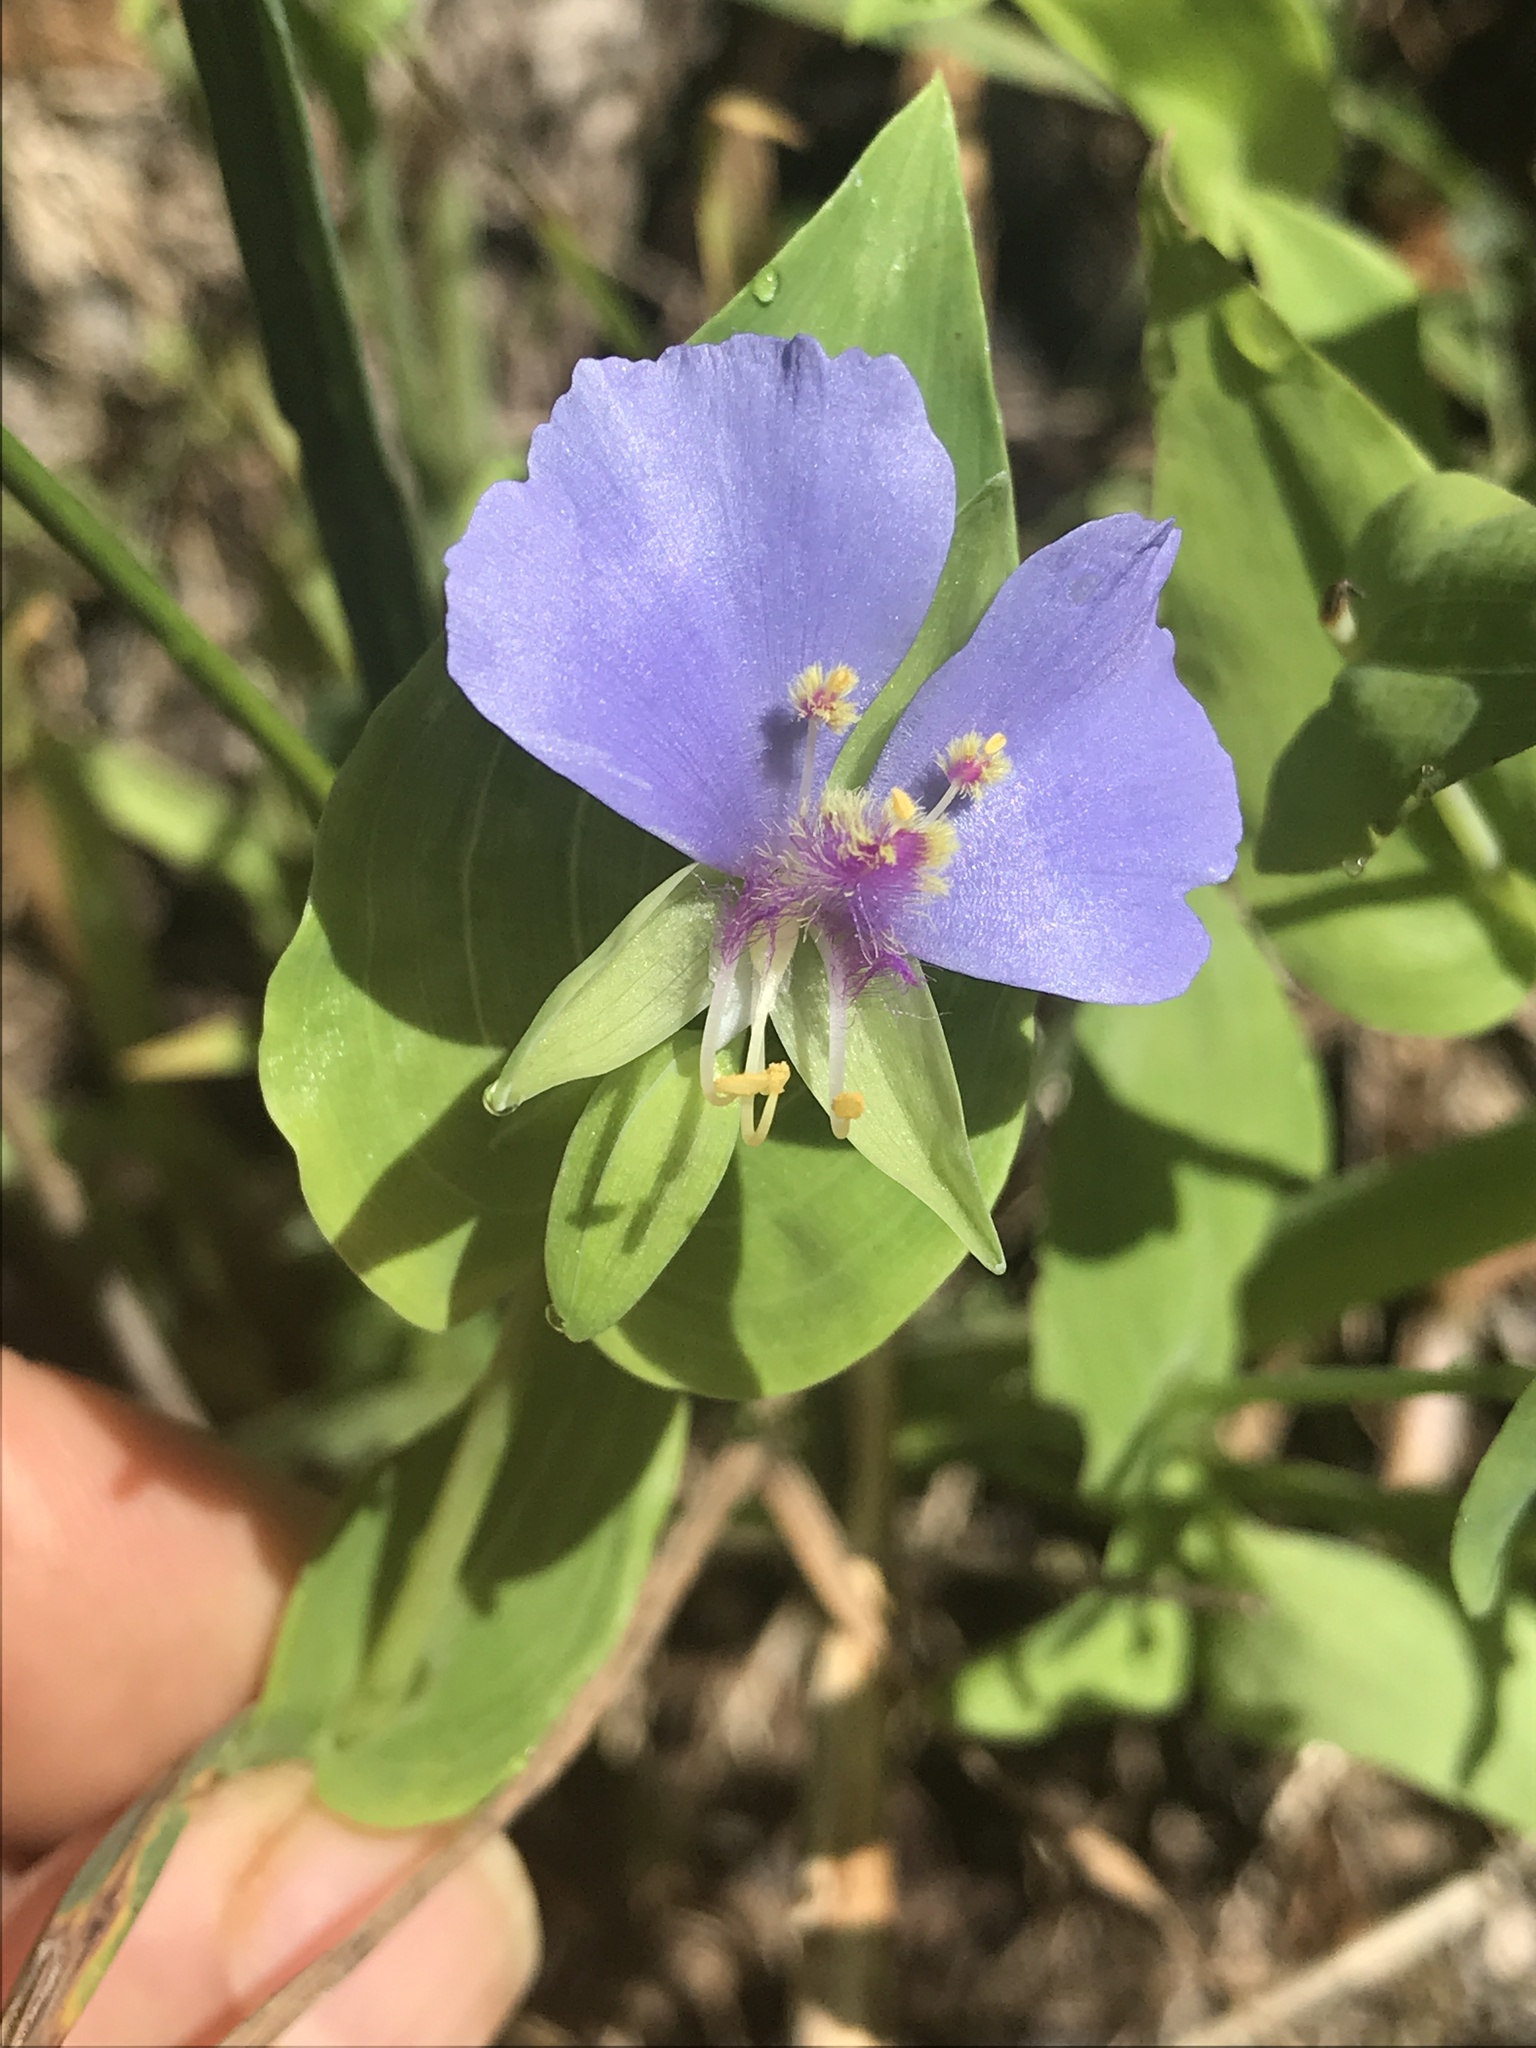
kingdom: Plantae
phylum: Tracheophyta
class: Liliopsida
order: Commelinales
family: Commelinaceae
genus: Tinantia
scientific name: Tinantia anomala
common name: False dayflower
